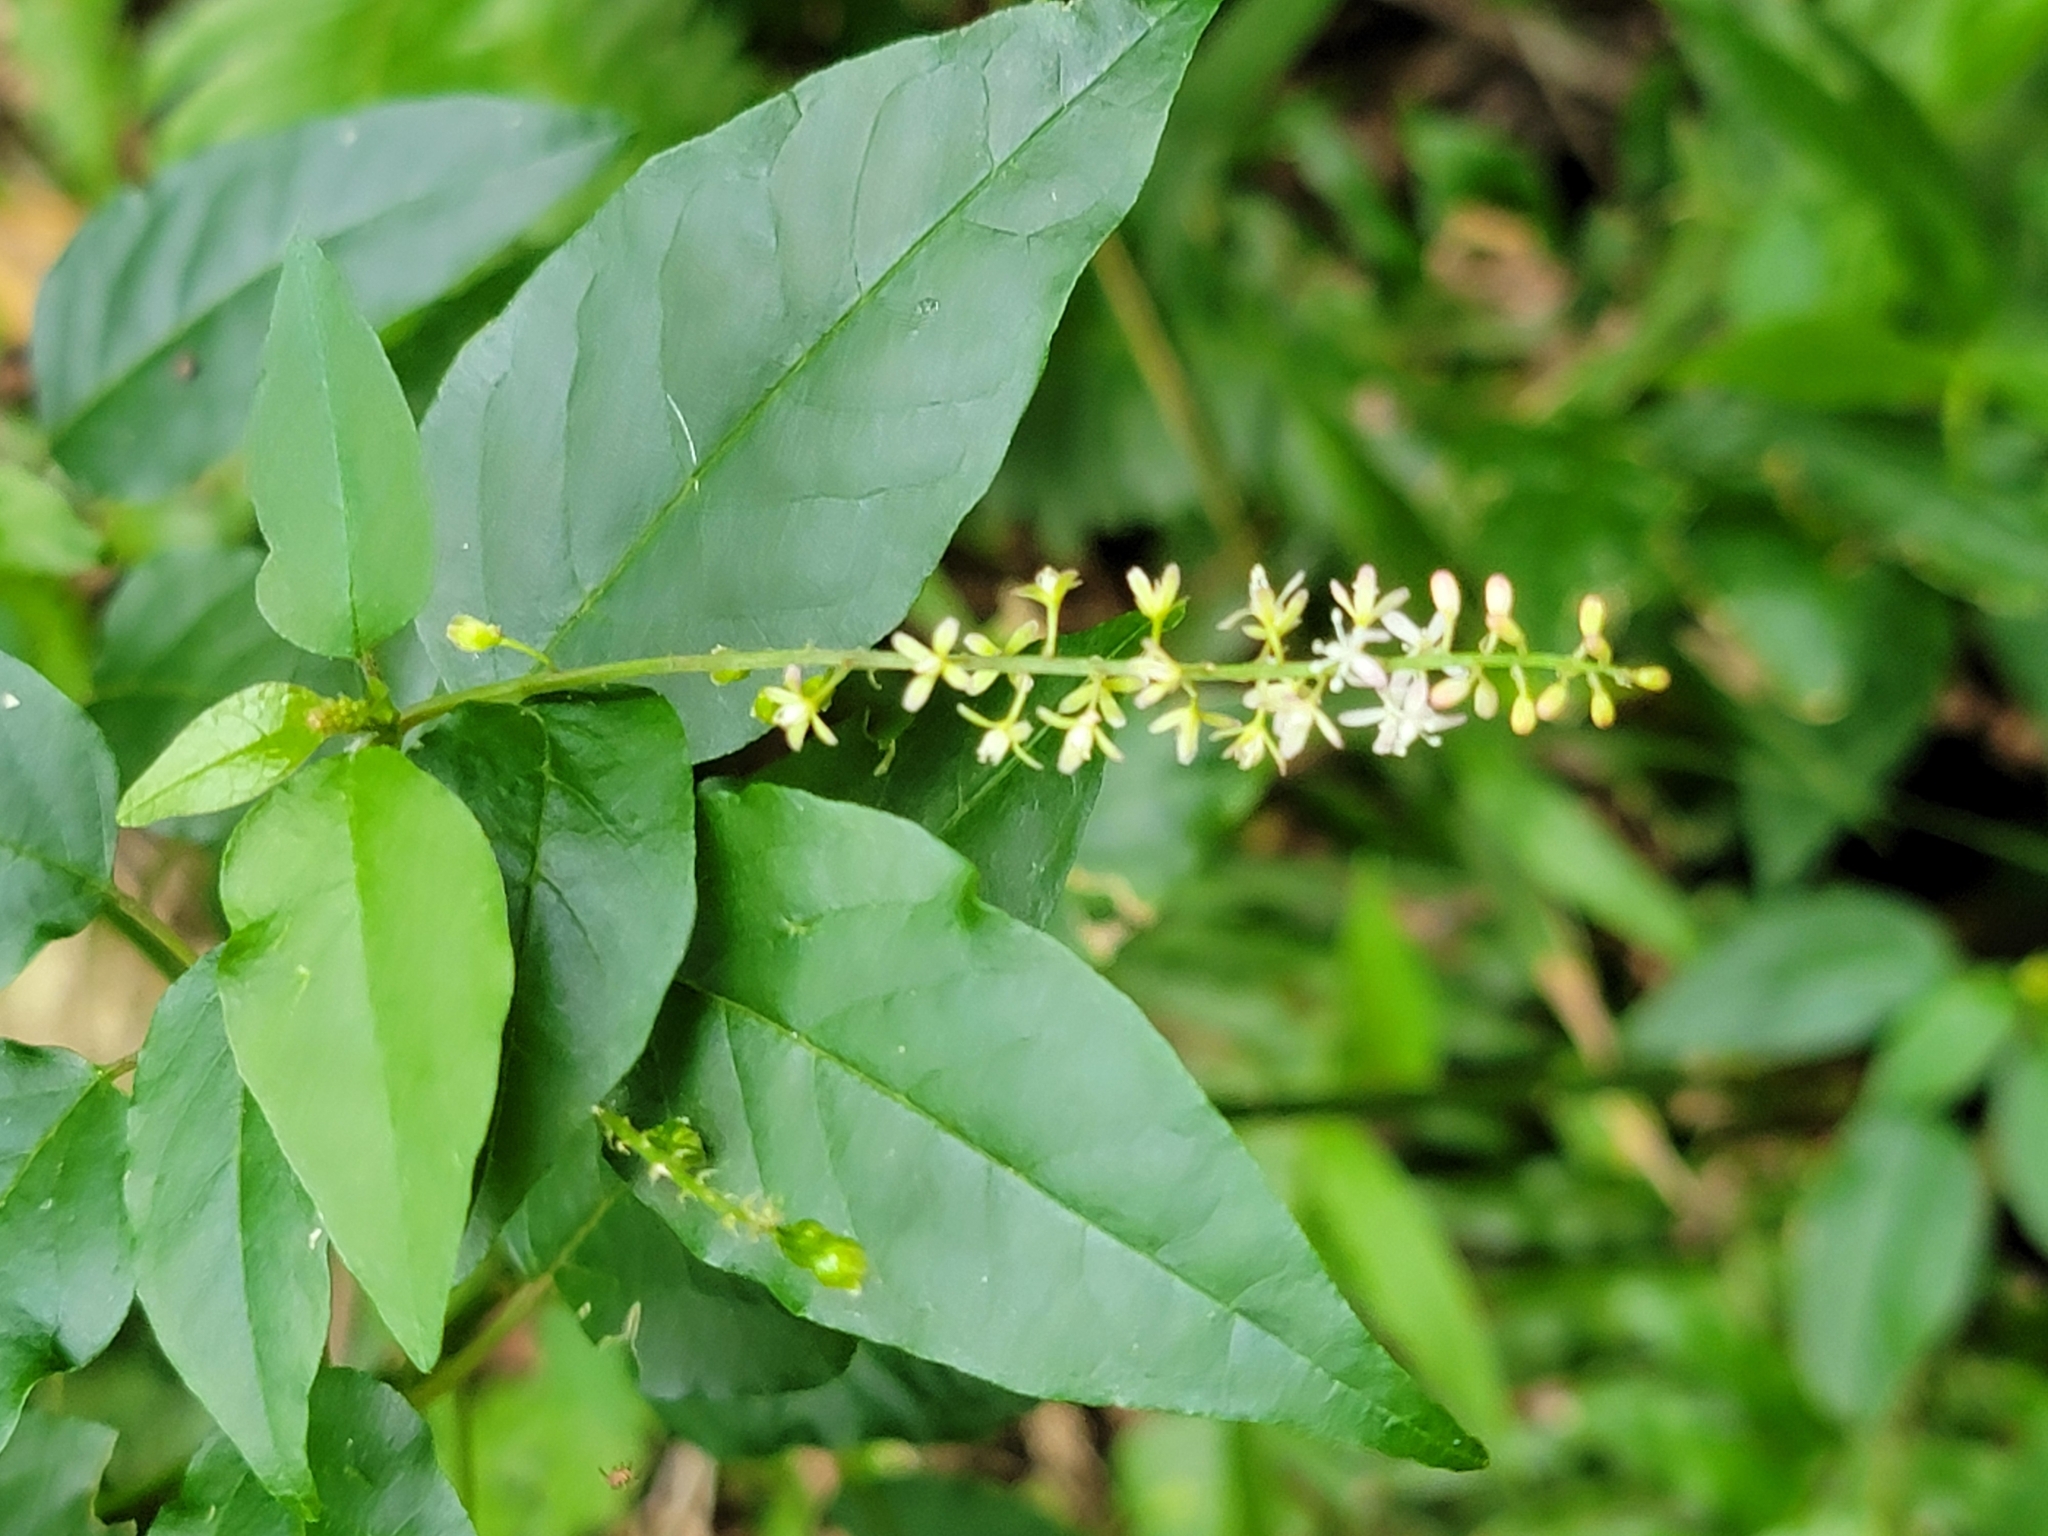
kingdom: Plantae
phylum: Tracheophyta
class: Magnoliopsida
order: Caryophyllales
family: Phytolaccaceae
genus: Rivina
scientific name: Rivina humilis
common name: Rougeplant
